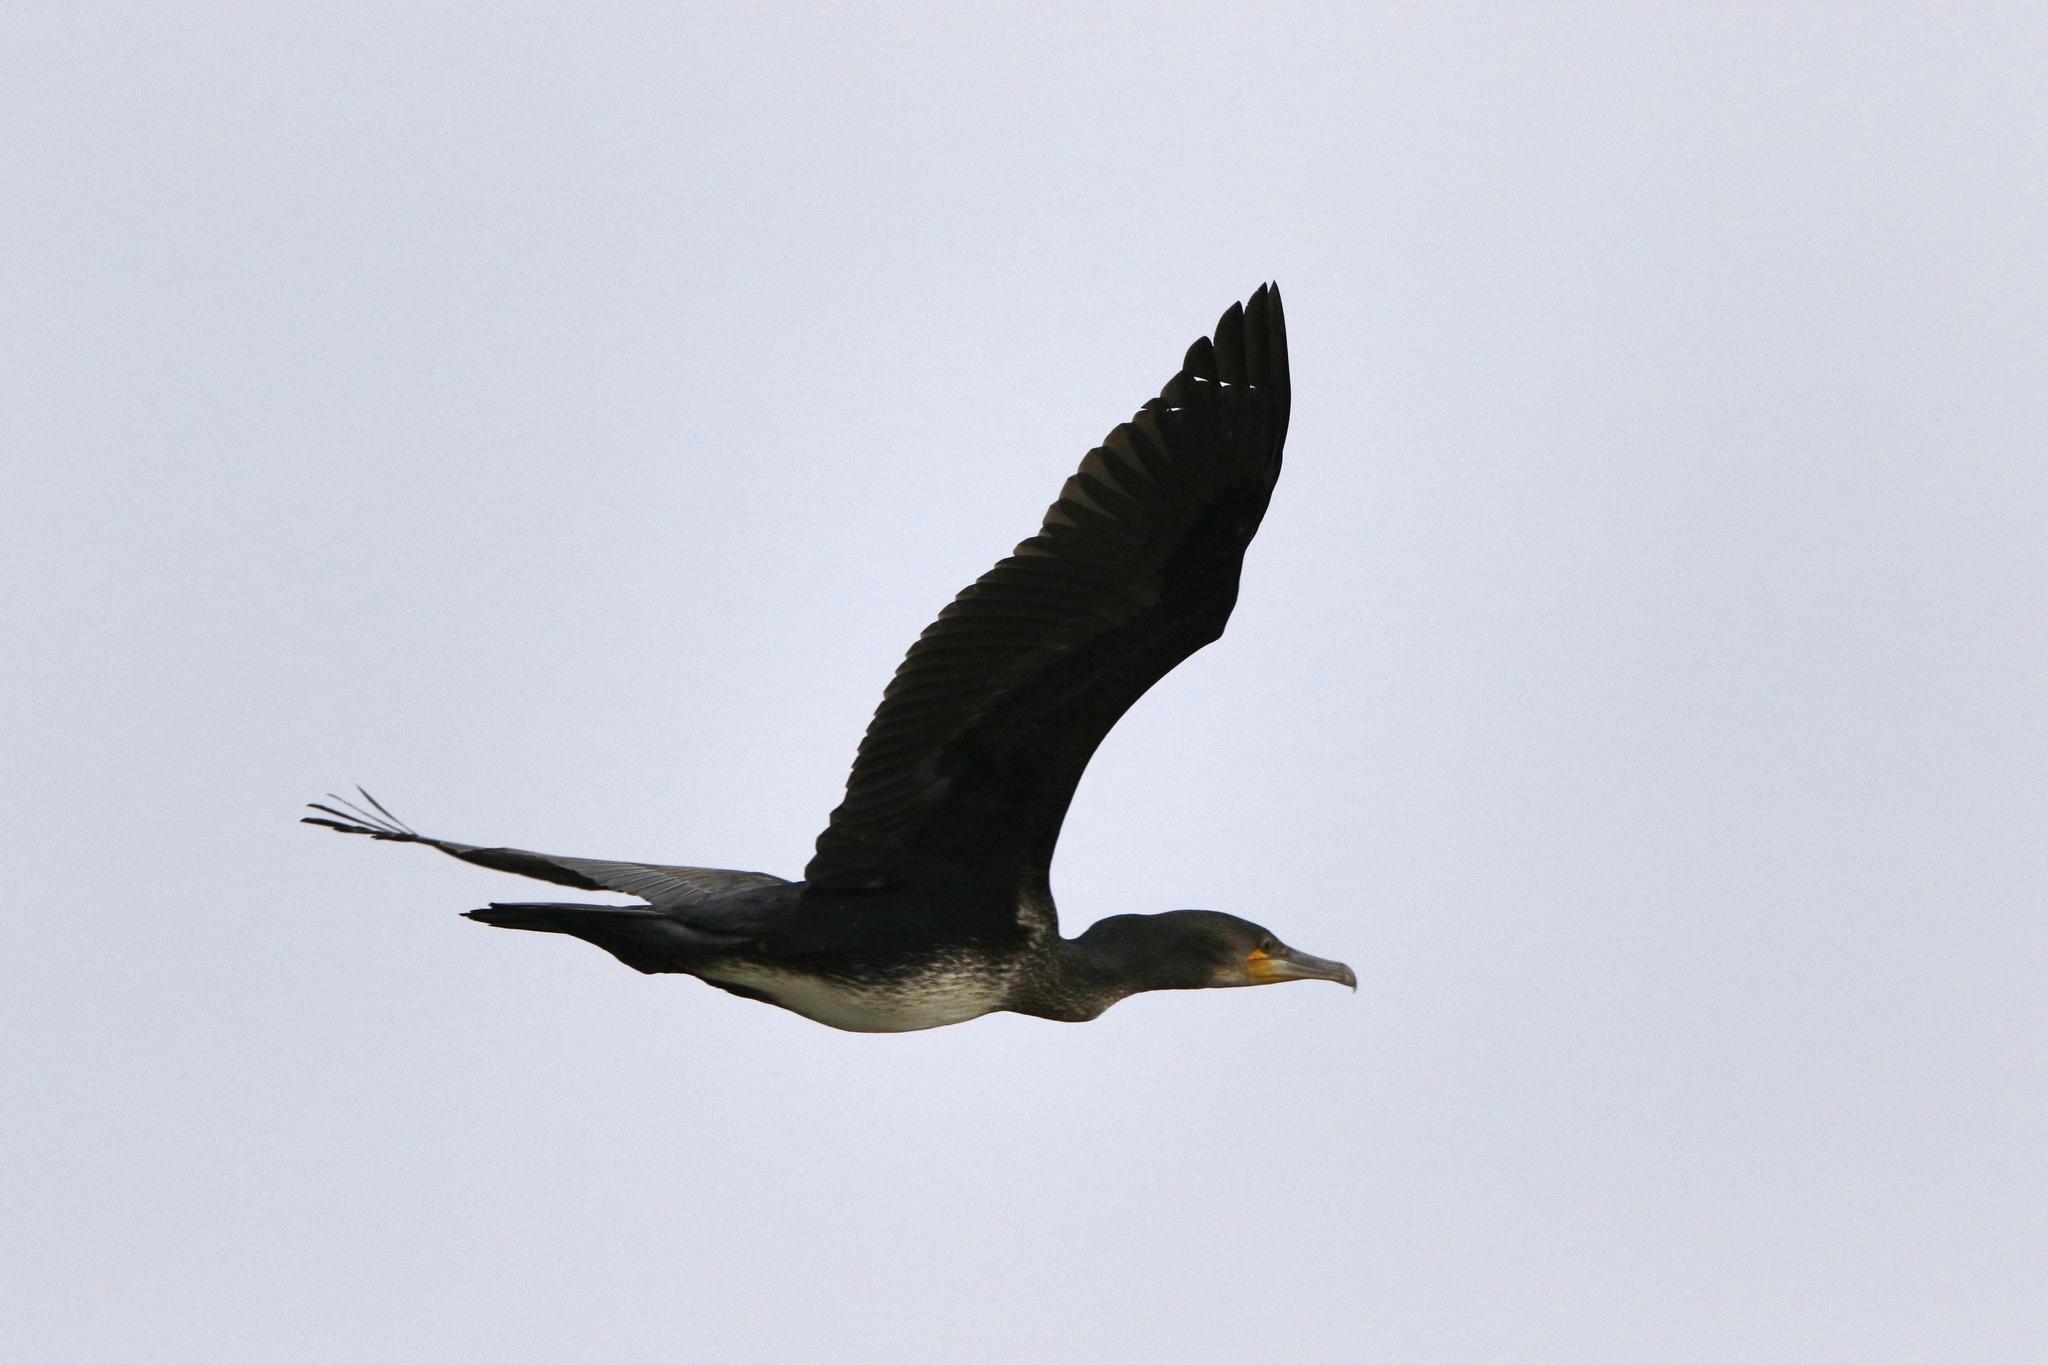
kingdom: Animalia
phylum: Chordata
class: Aves
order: Suliformes
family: Phalacrocoracidae
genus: Phalacrocorax
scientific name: Phalacrocorax carbo
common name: Great cormorant
